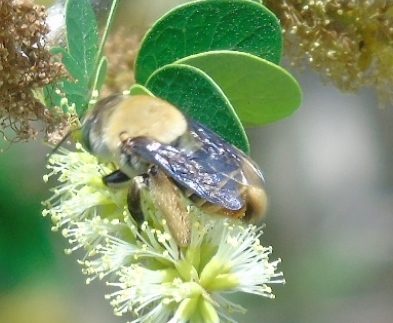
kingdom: Animalia
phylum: Arthropoda
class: Insecta
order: Hymenoptera
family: Apidae
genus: Centris
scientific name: Centris adani
